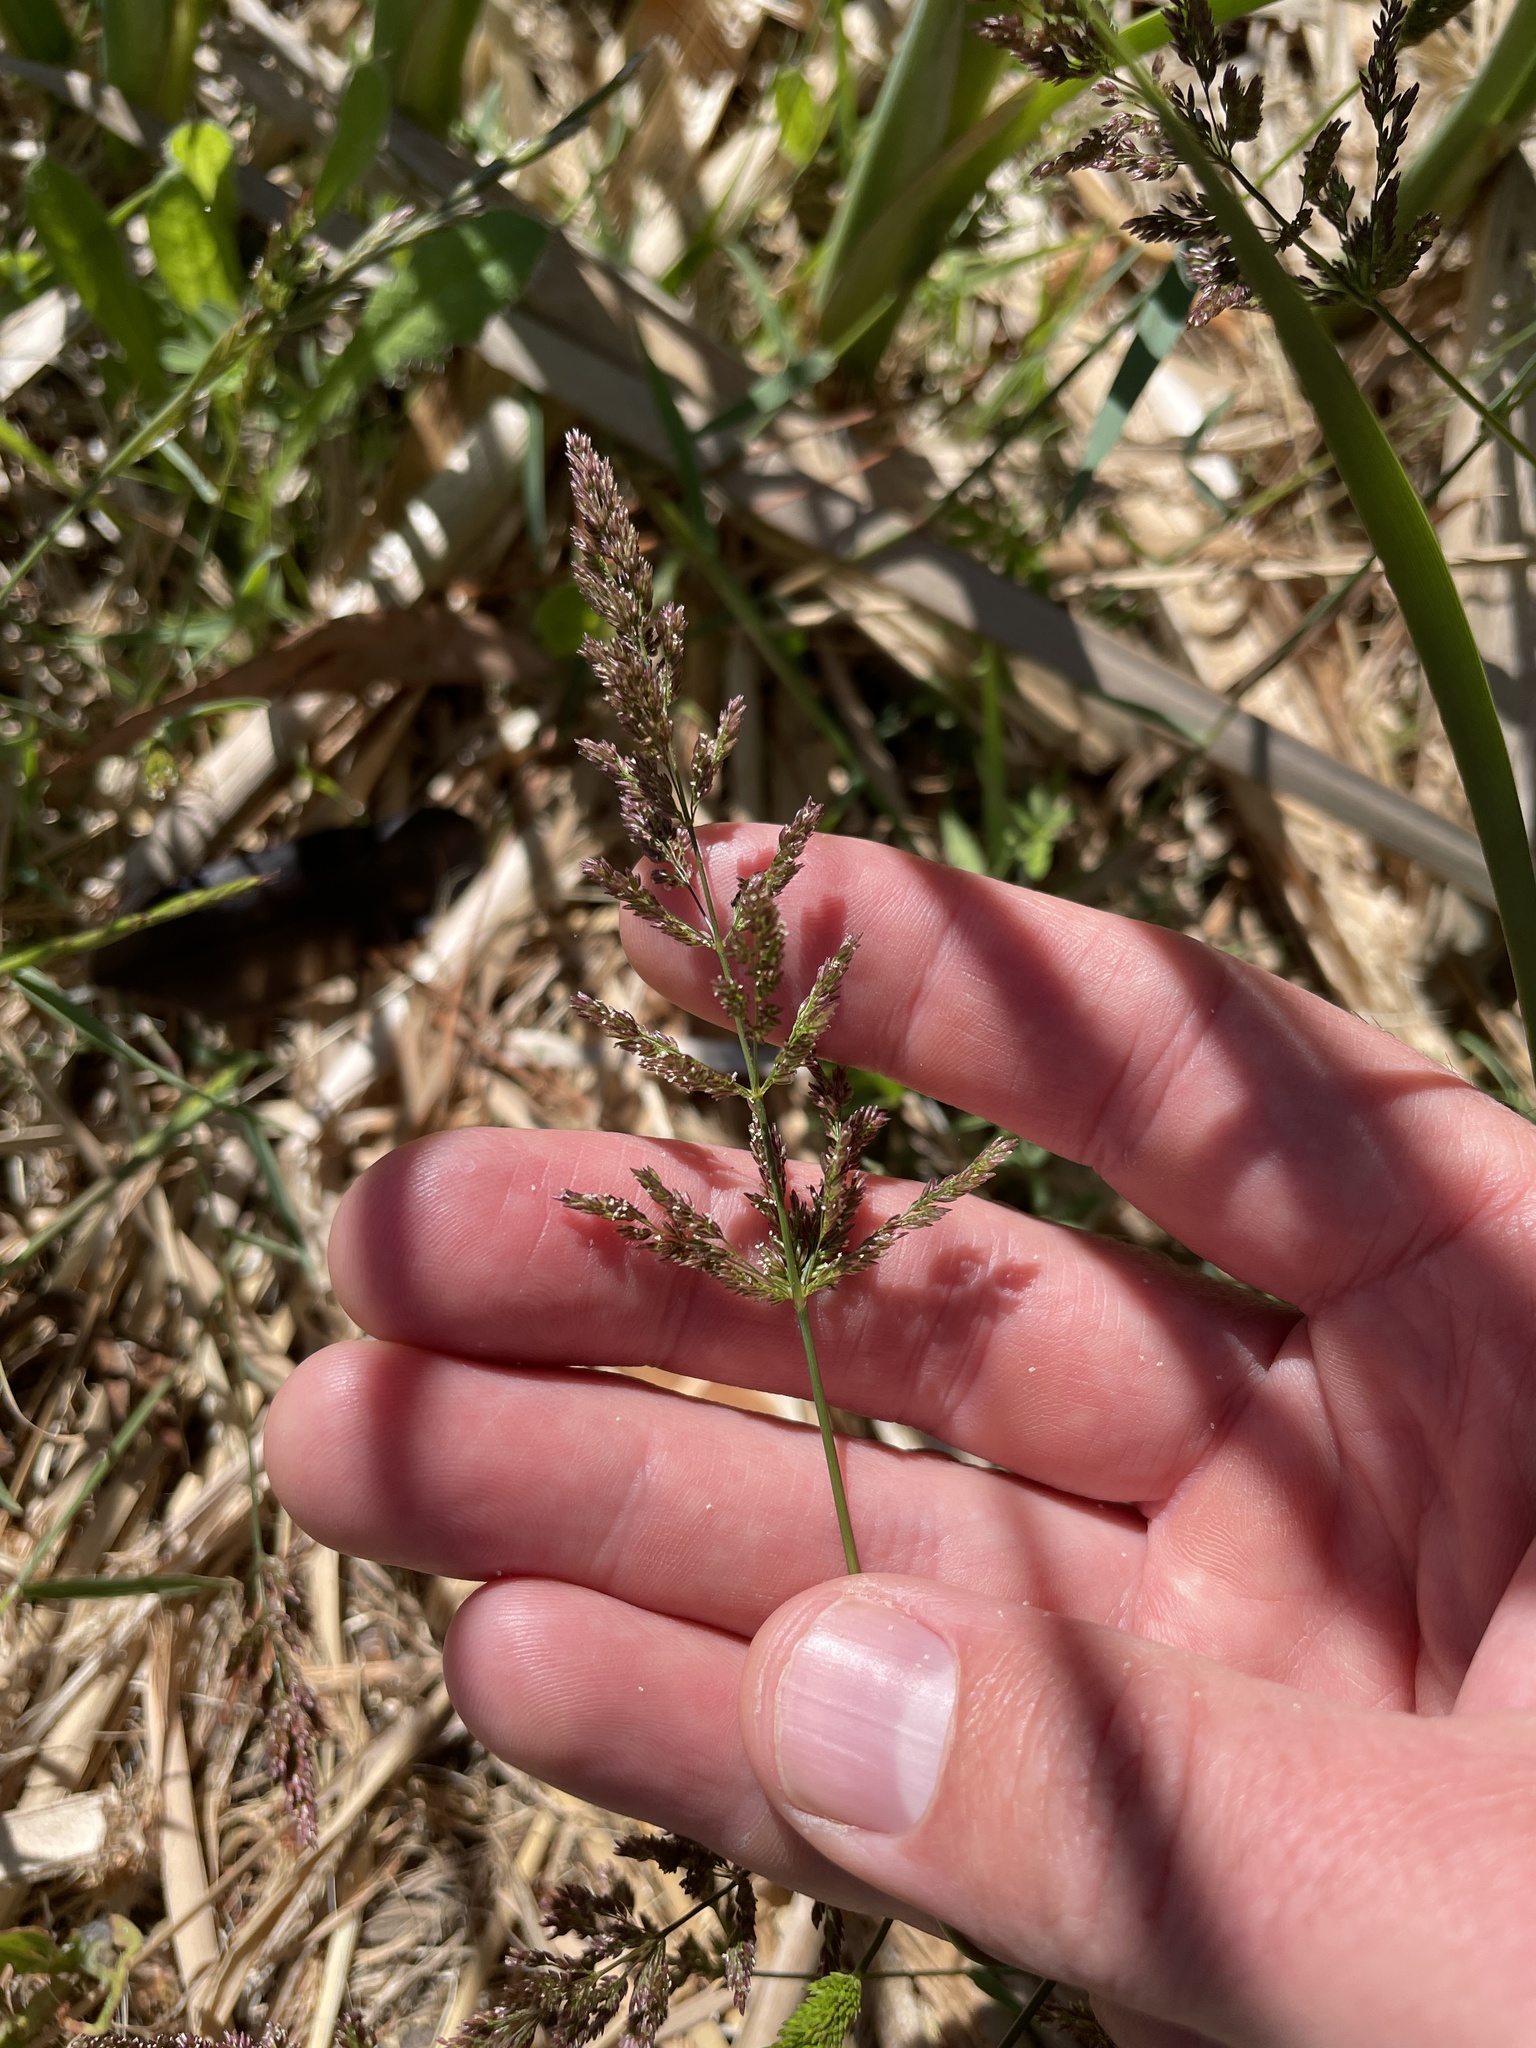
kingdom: Plantae
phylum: Tracheophyta
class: Liliopsida
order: Poales
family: Poaceae
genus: Polypogon
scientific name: Polypogon viridis
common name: Water bent
